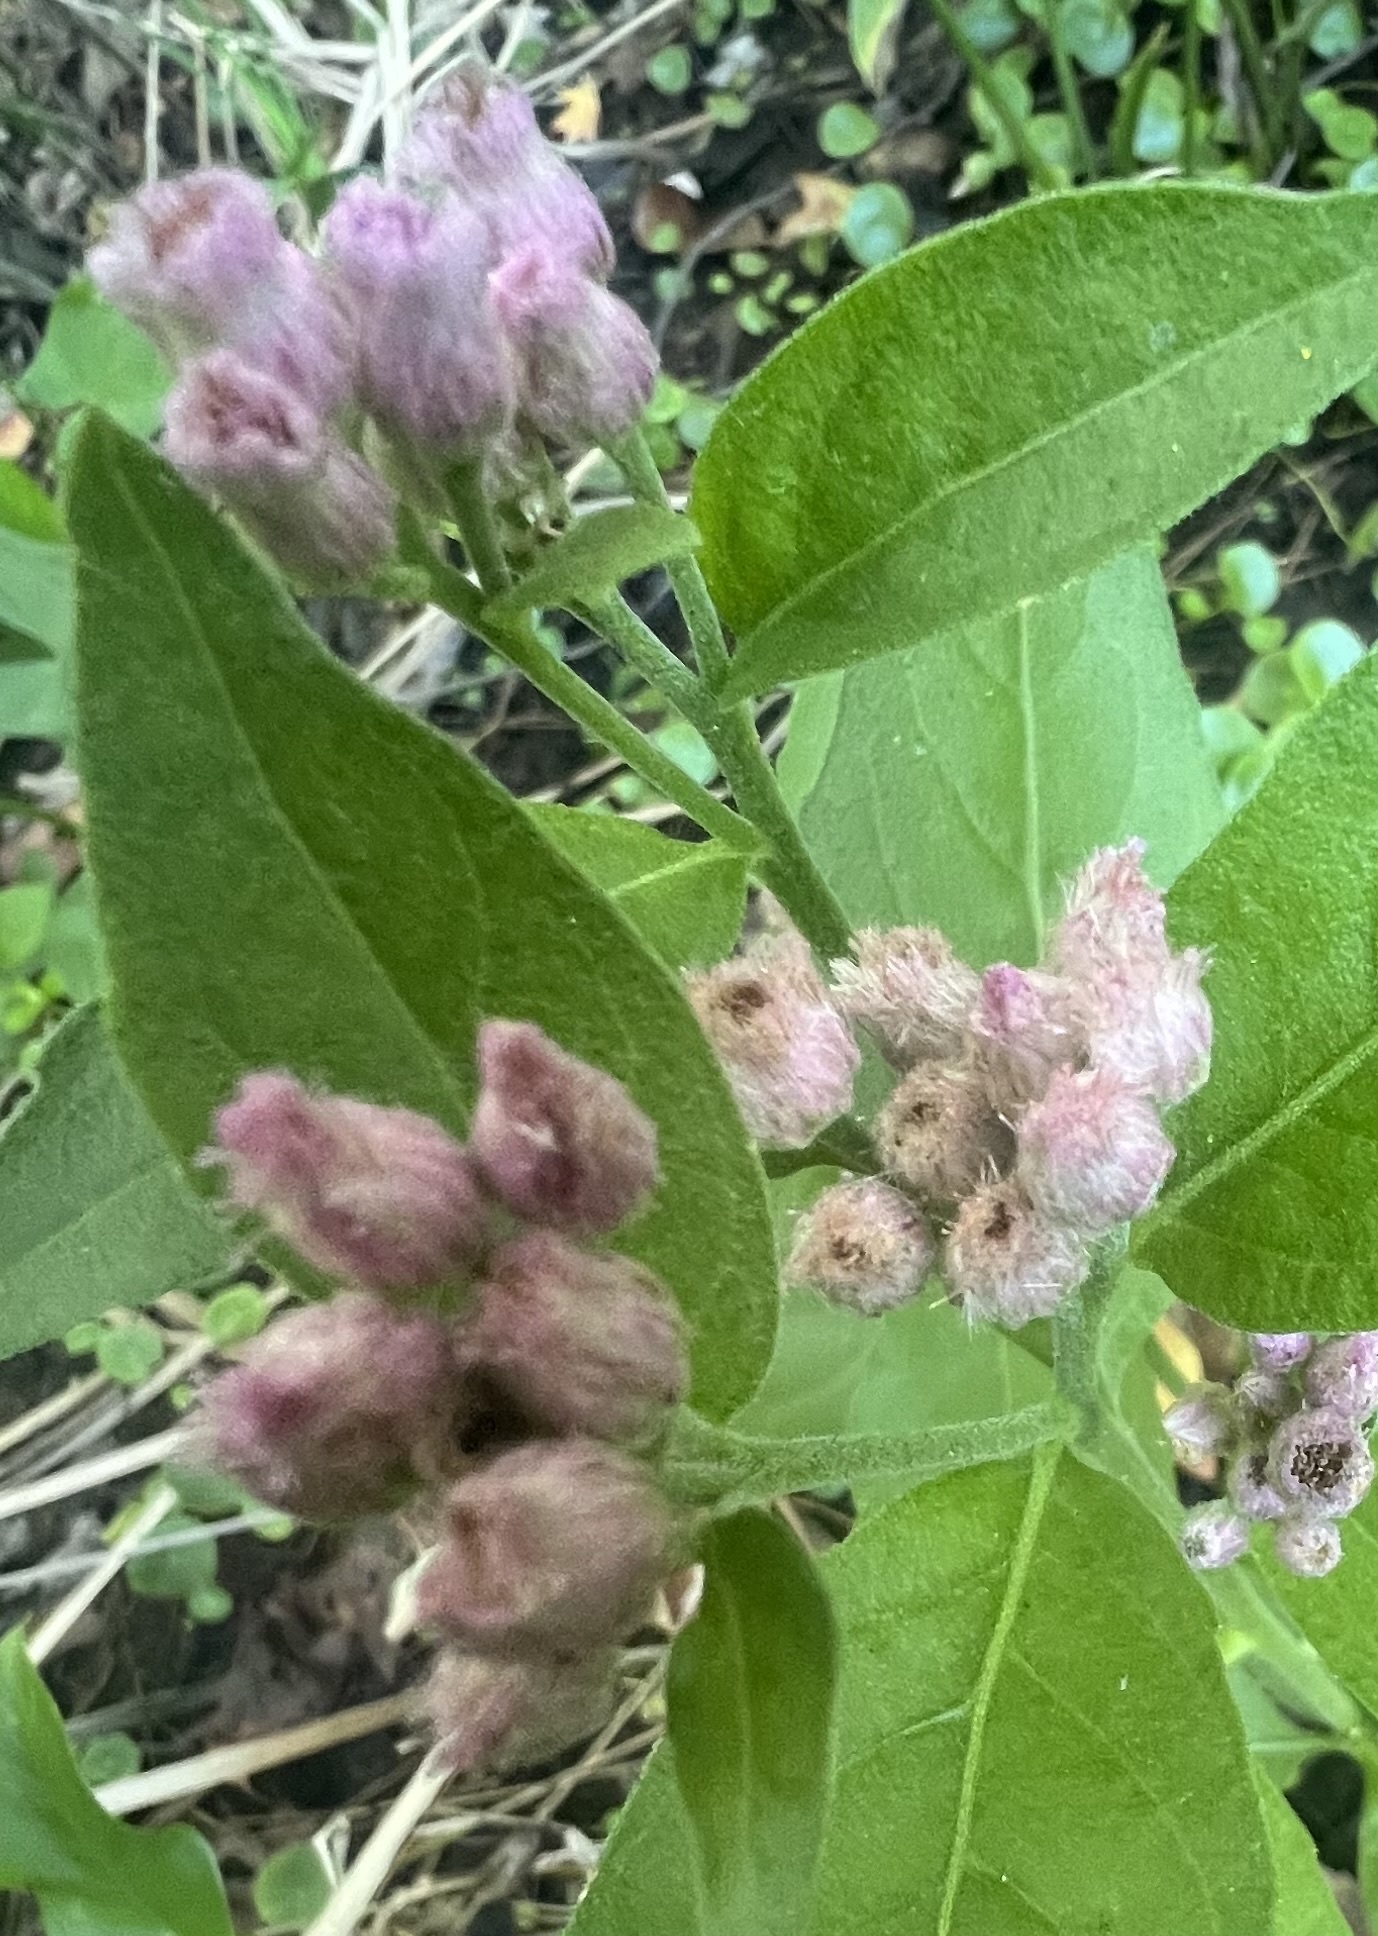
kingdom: Plantae
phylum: Tracheophyta
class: Magnoliopsida
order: Asterales
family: Asteraceae
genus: Pluchea
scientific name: Pluchea odorata
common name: Saltmarsh fleabane
